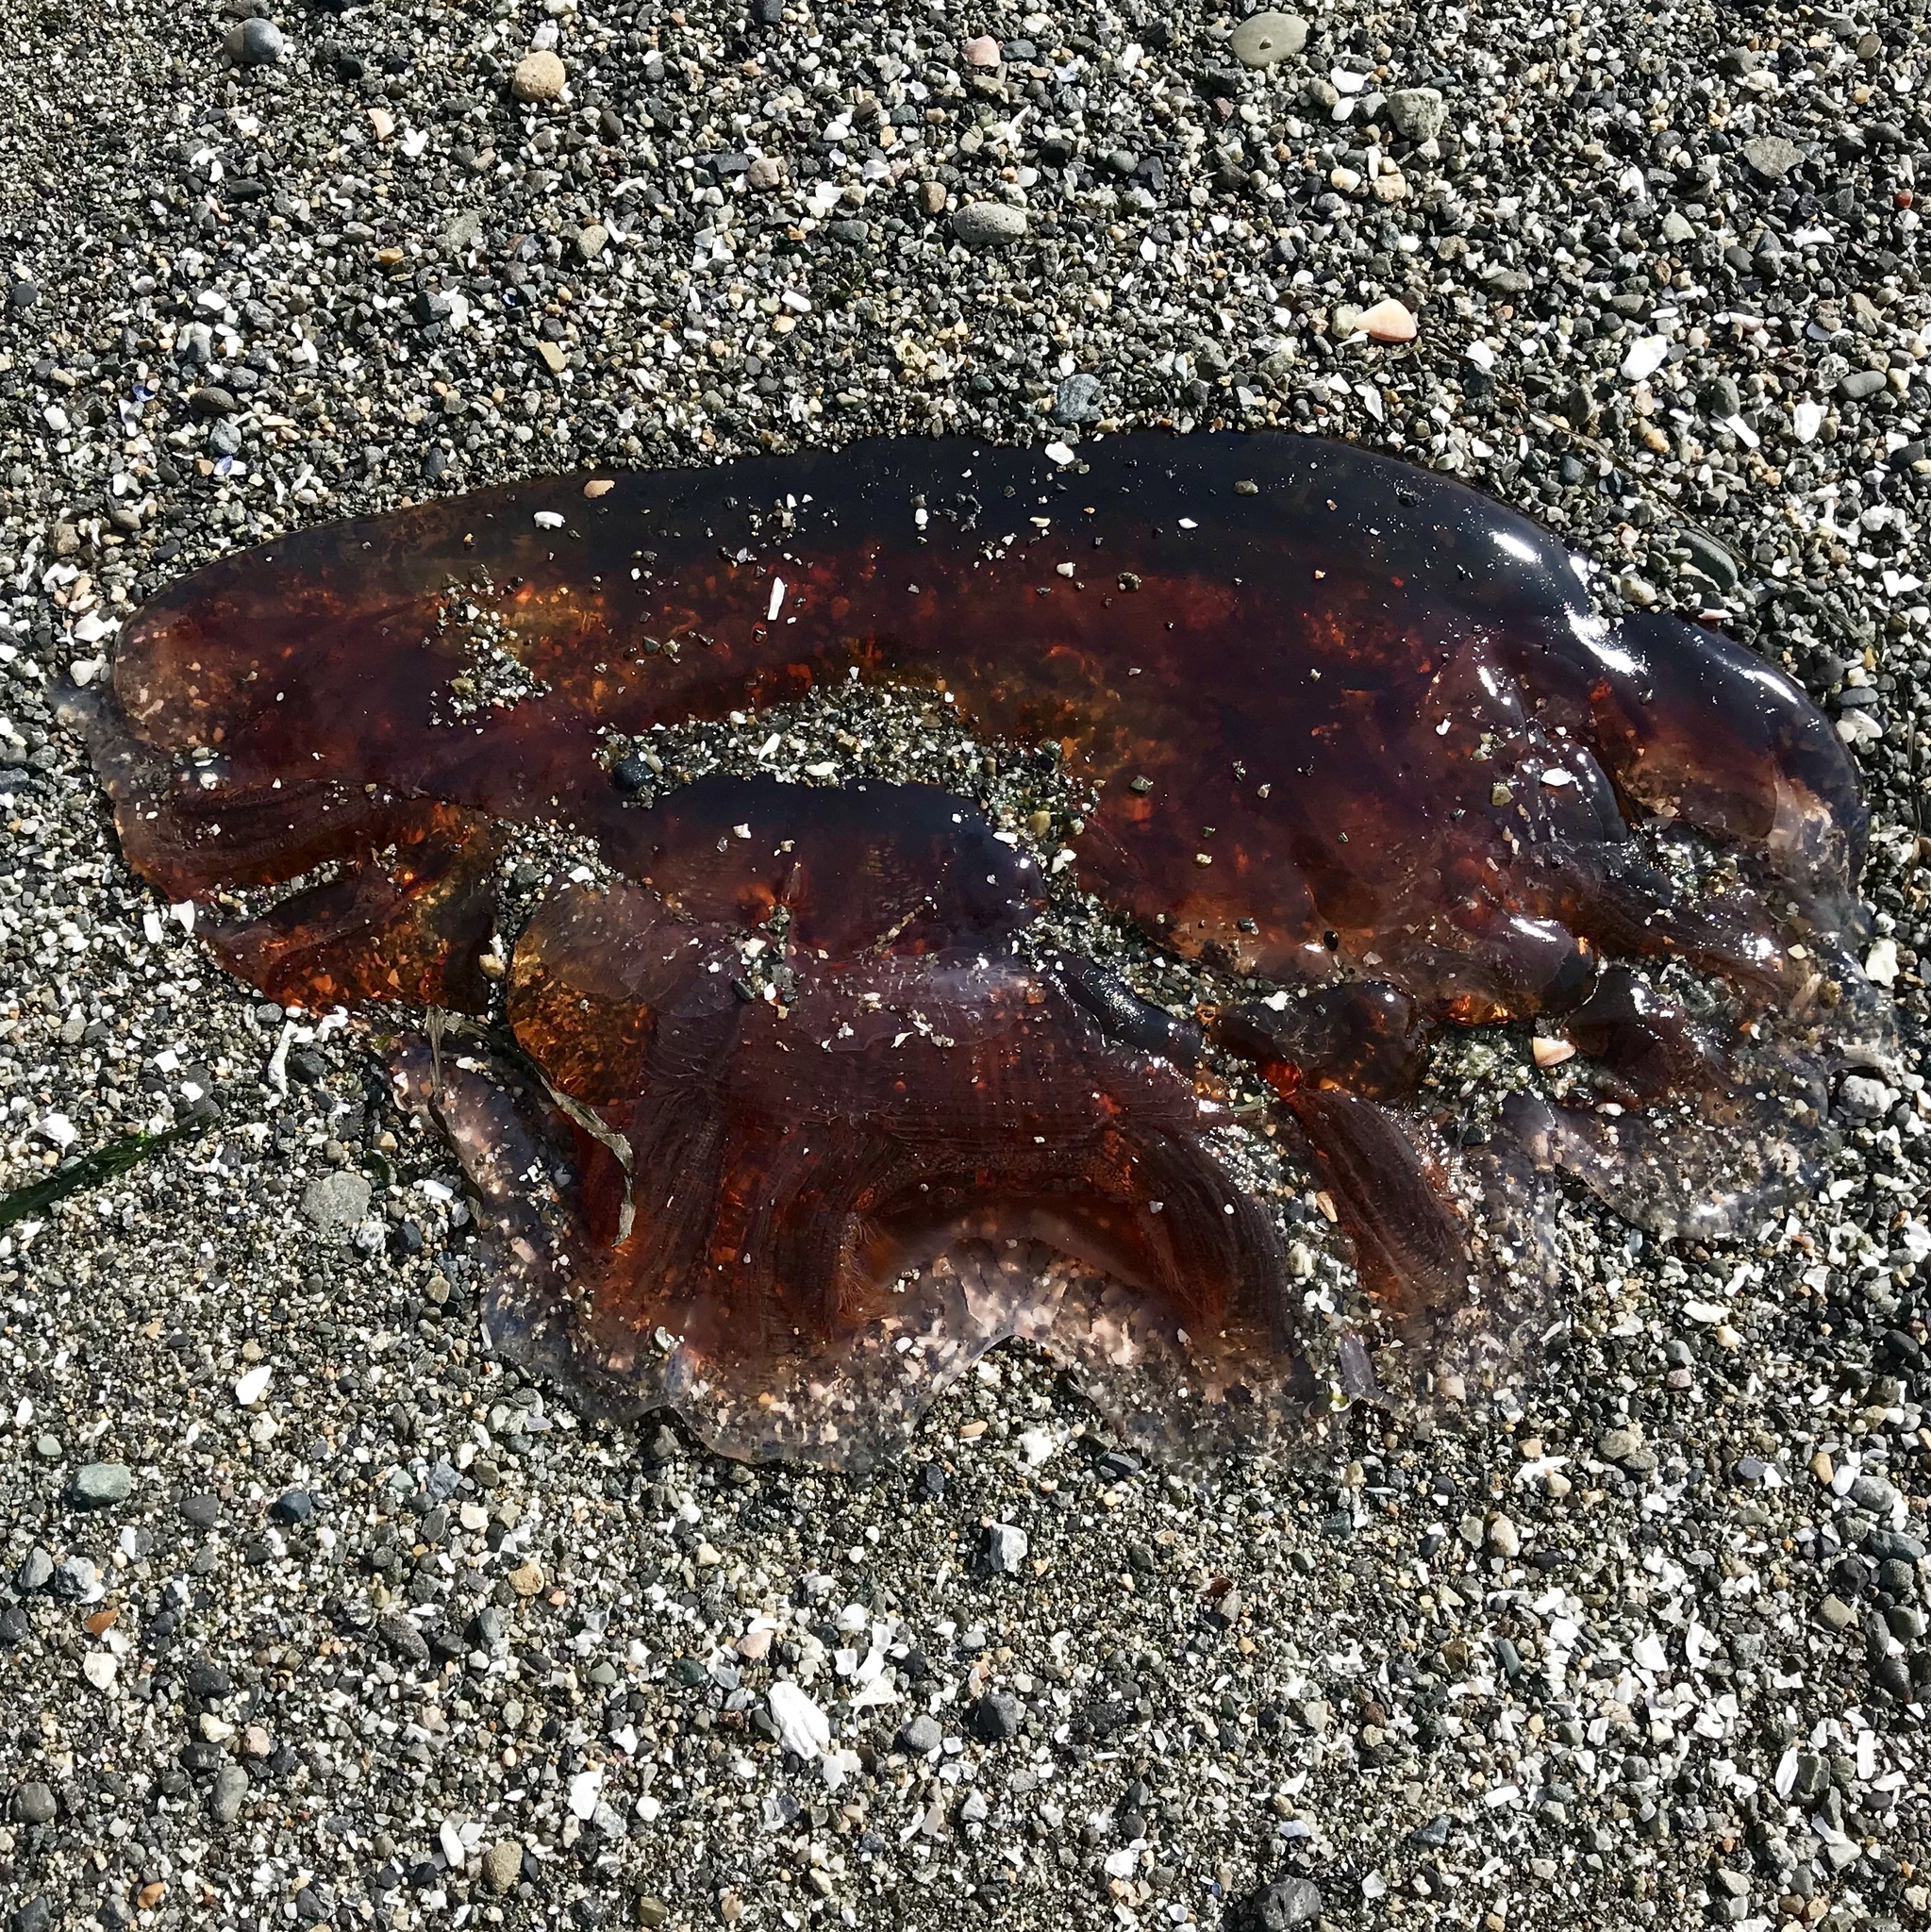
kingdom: Animalia
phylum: Cnidaria
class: Scyphozoa
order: Semaeostomeae
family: Cyaneidae
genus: Cyanea
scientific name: Cyanea ferruginea
